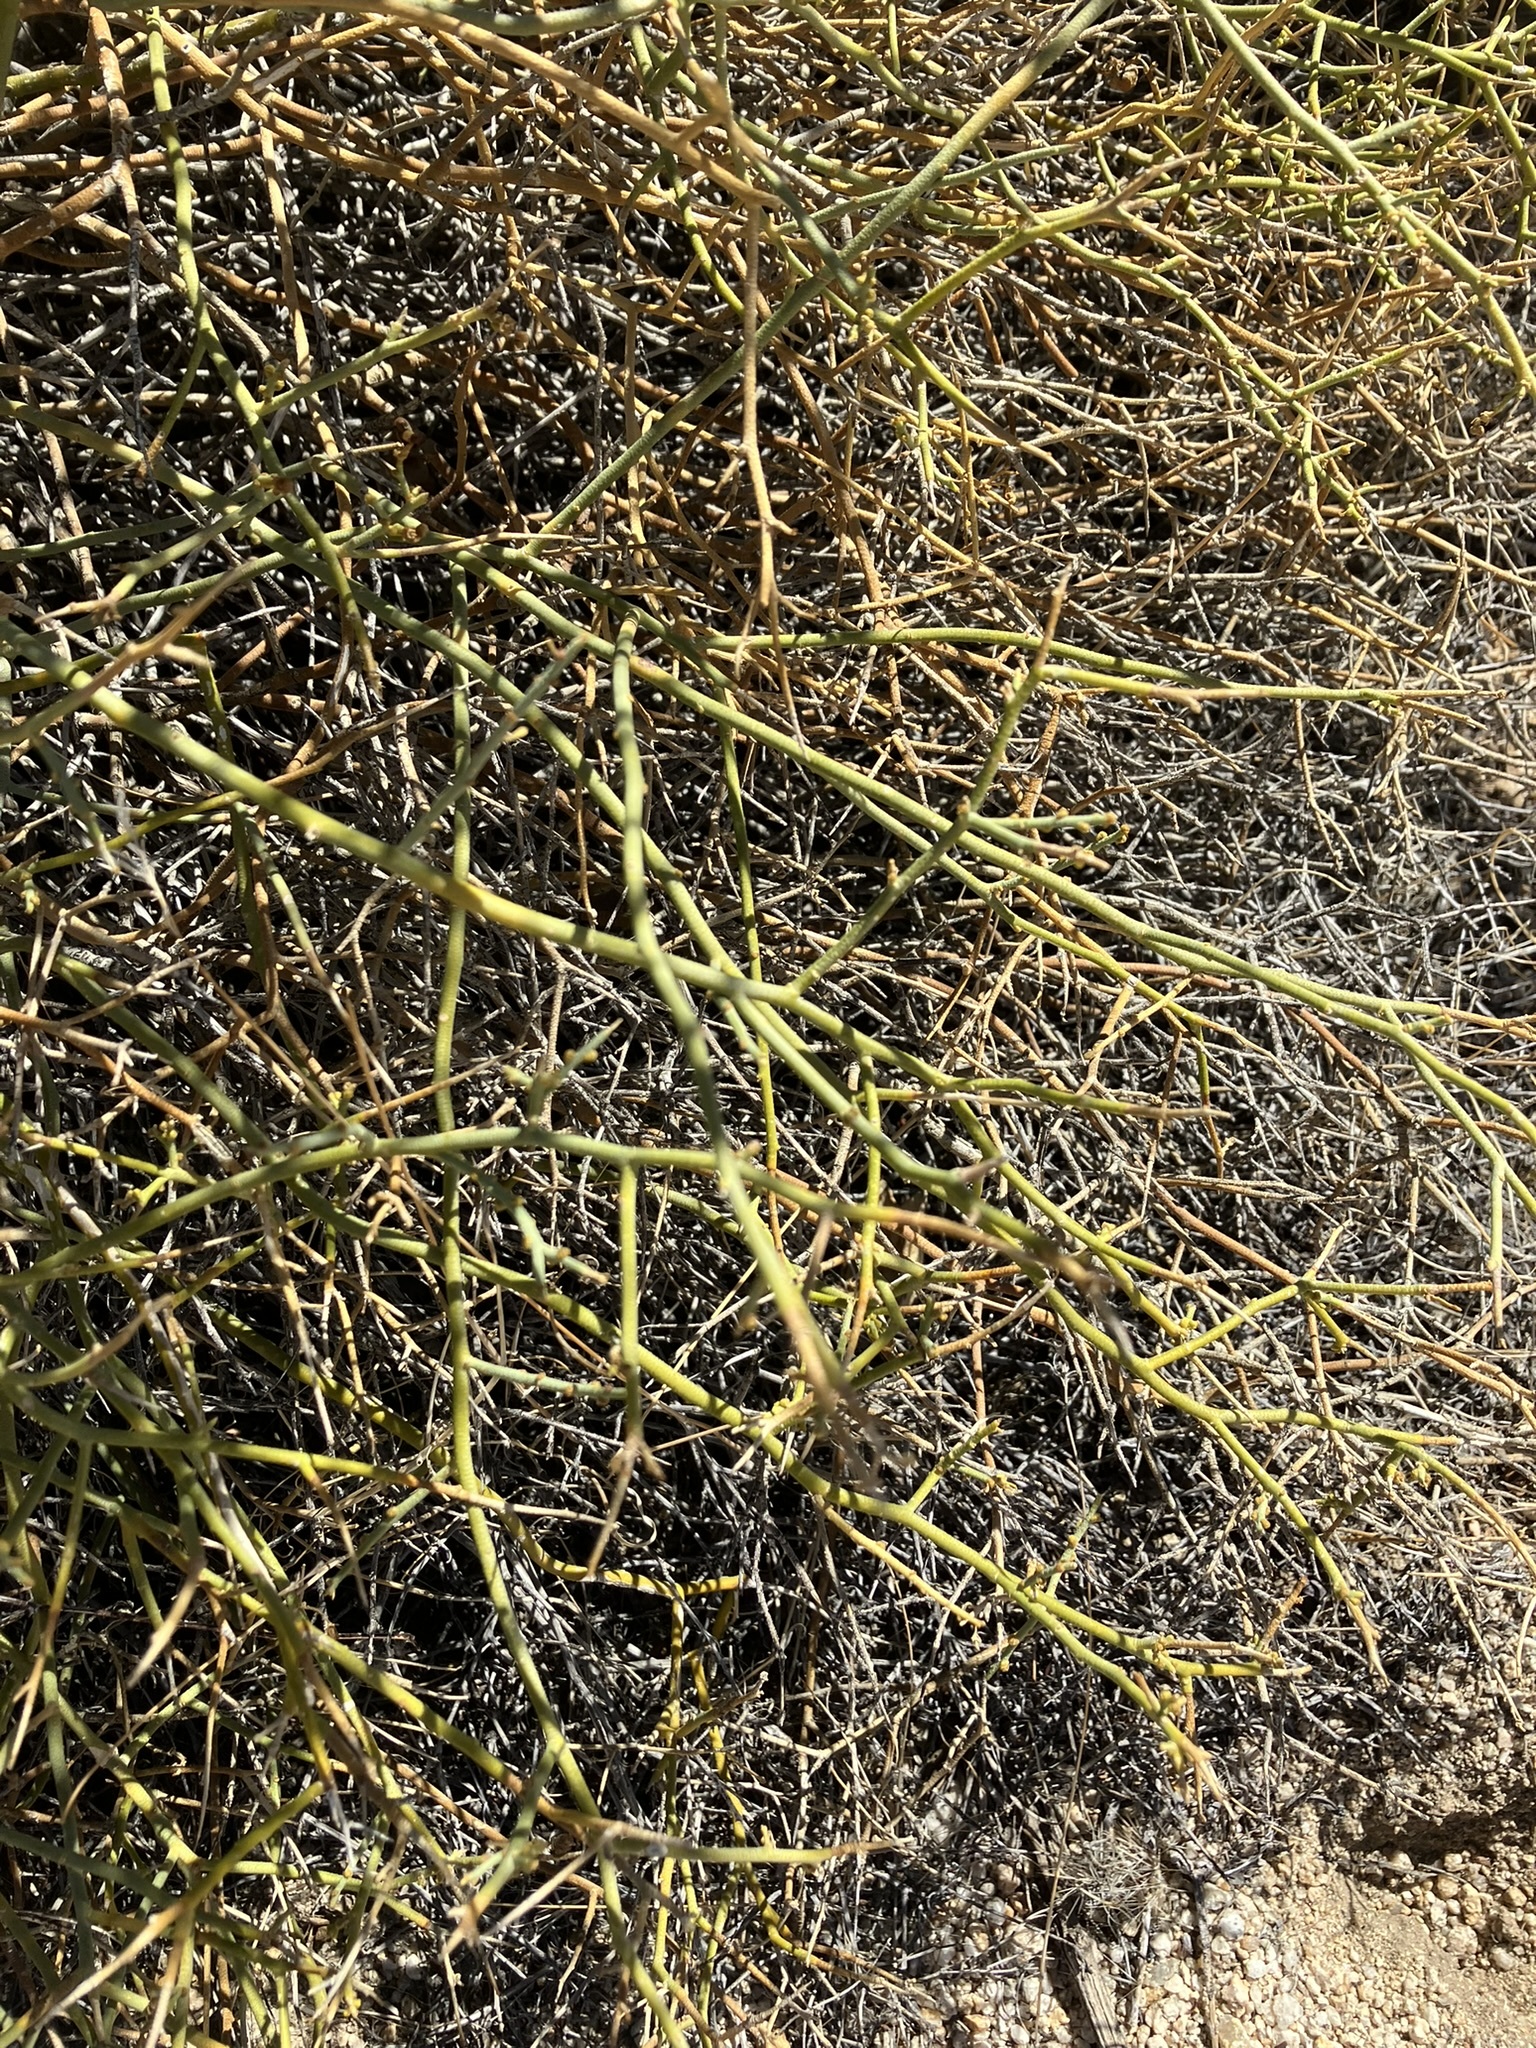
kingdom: Plantae
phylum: Tracheophyta
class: Magnoliopsida
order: Sapindales
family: Rutaceae
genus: Thamnosma
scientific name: Thamnosma montana
